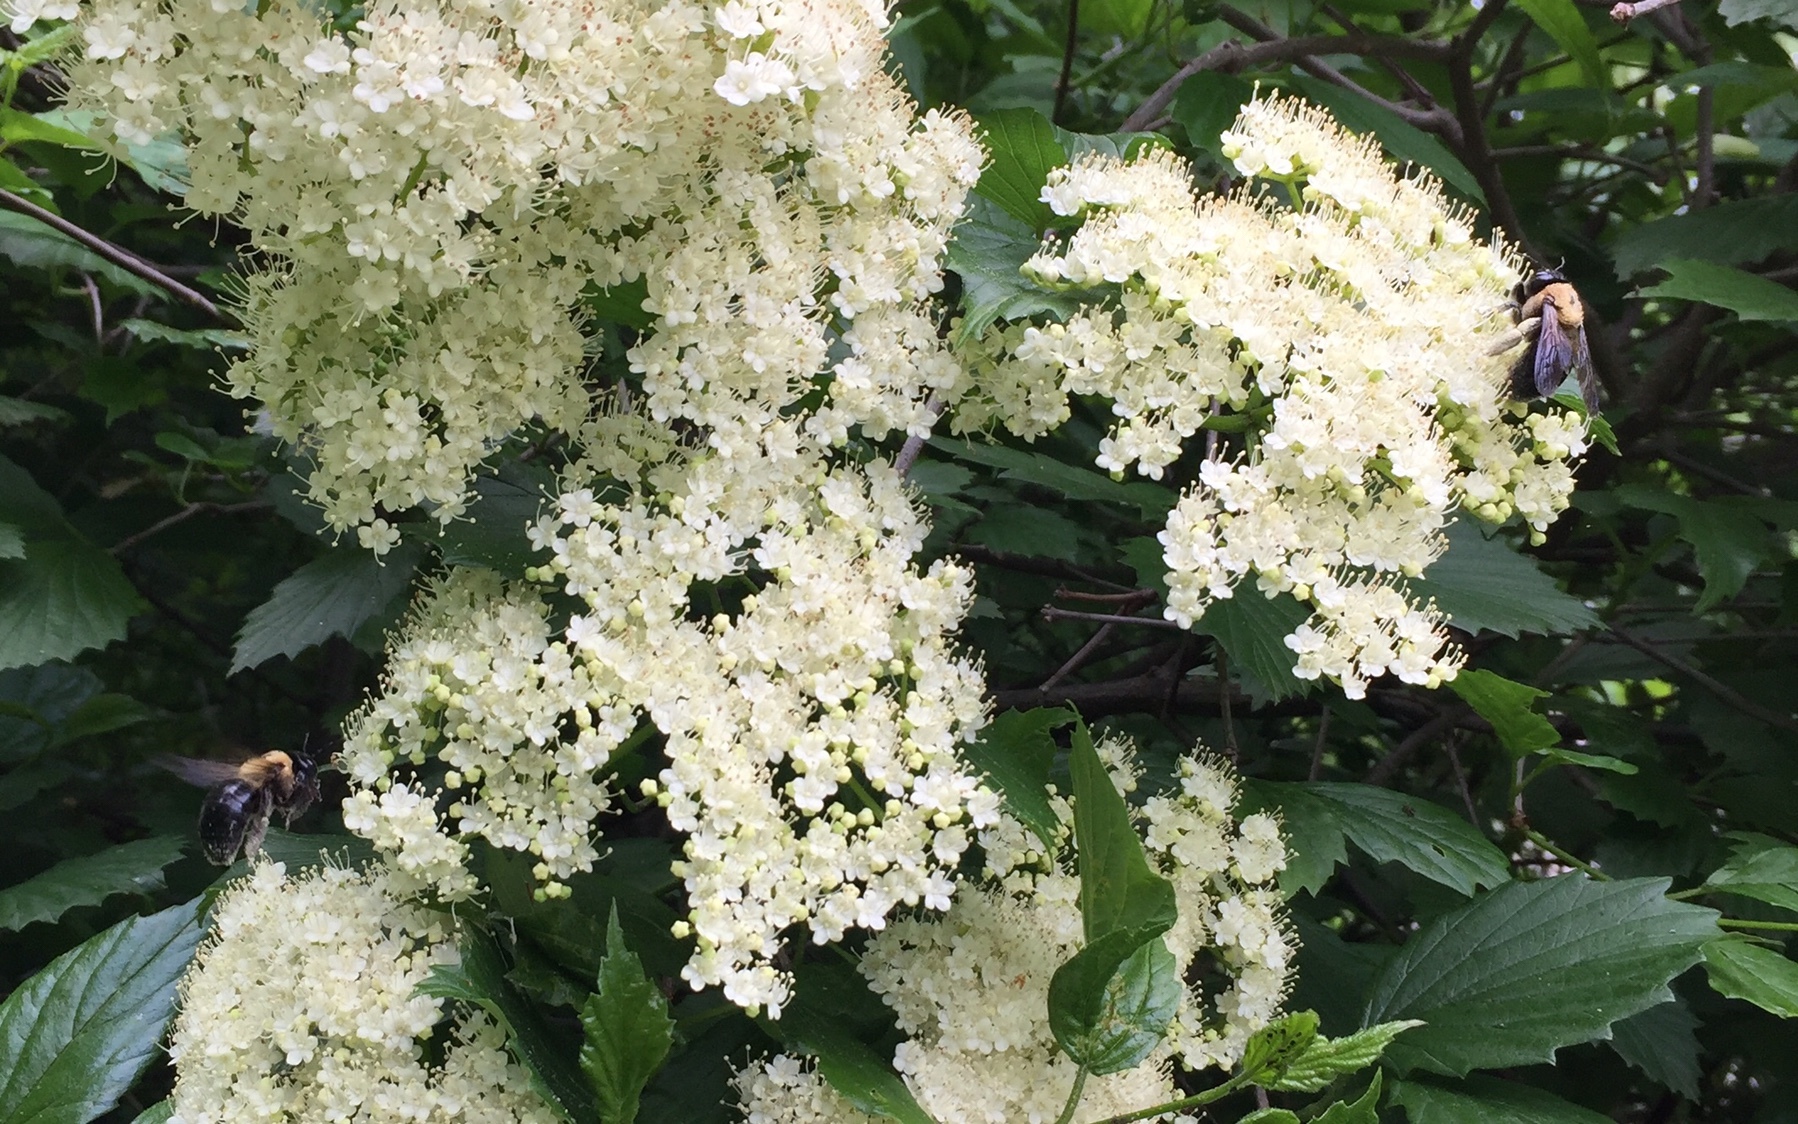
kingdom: Animalia
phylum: Arthropoda
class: Insecta
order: Hymenoptera
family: Apidae
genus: Xylocopa
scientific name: Xylocopa virginica
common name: Carpenter bee
